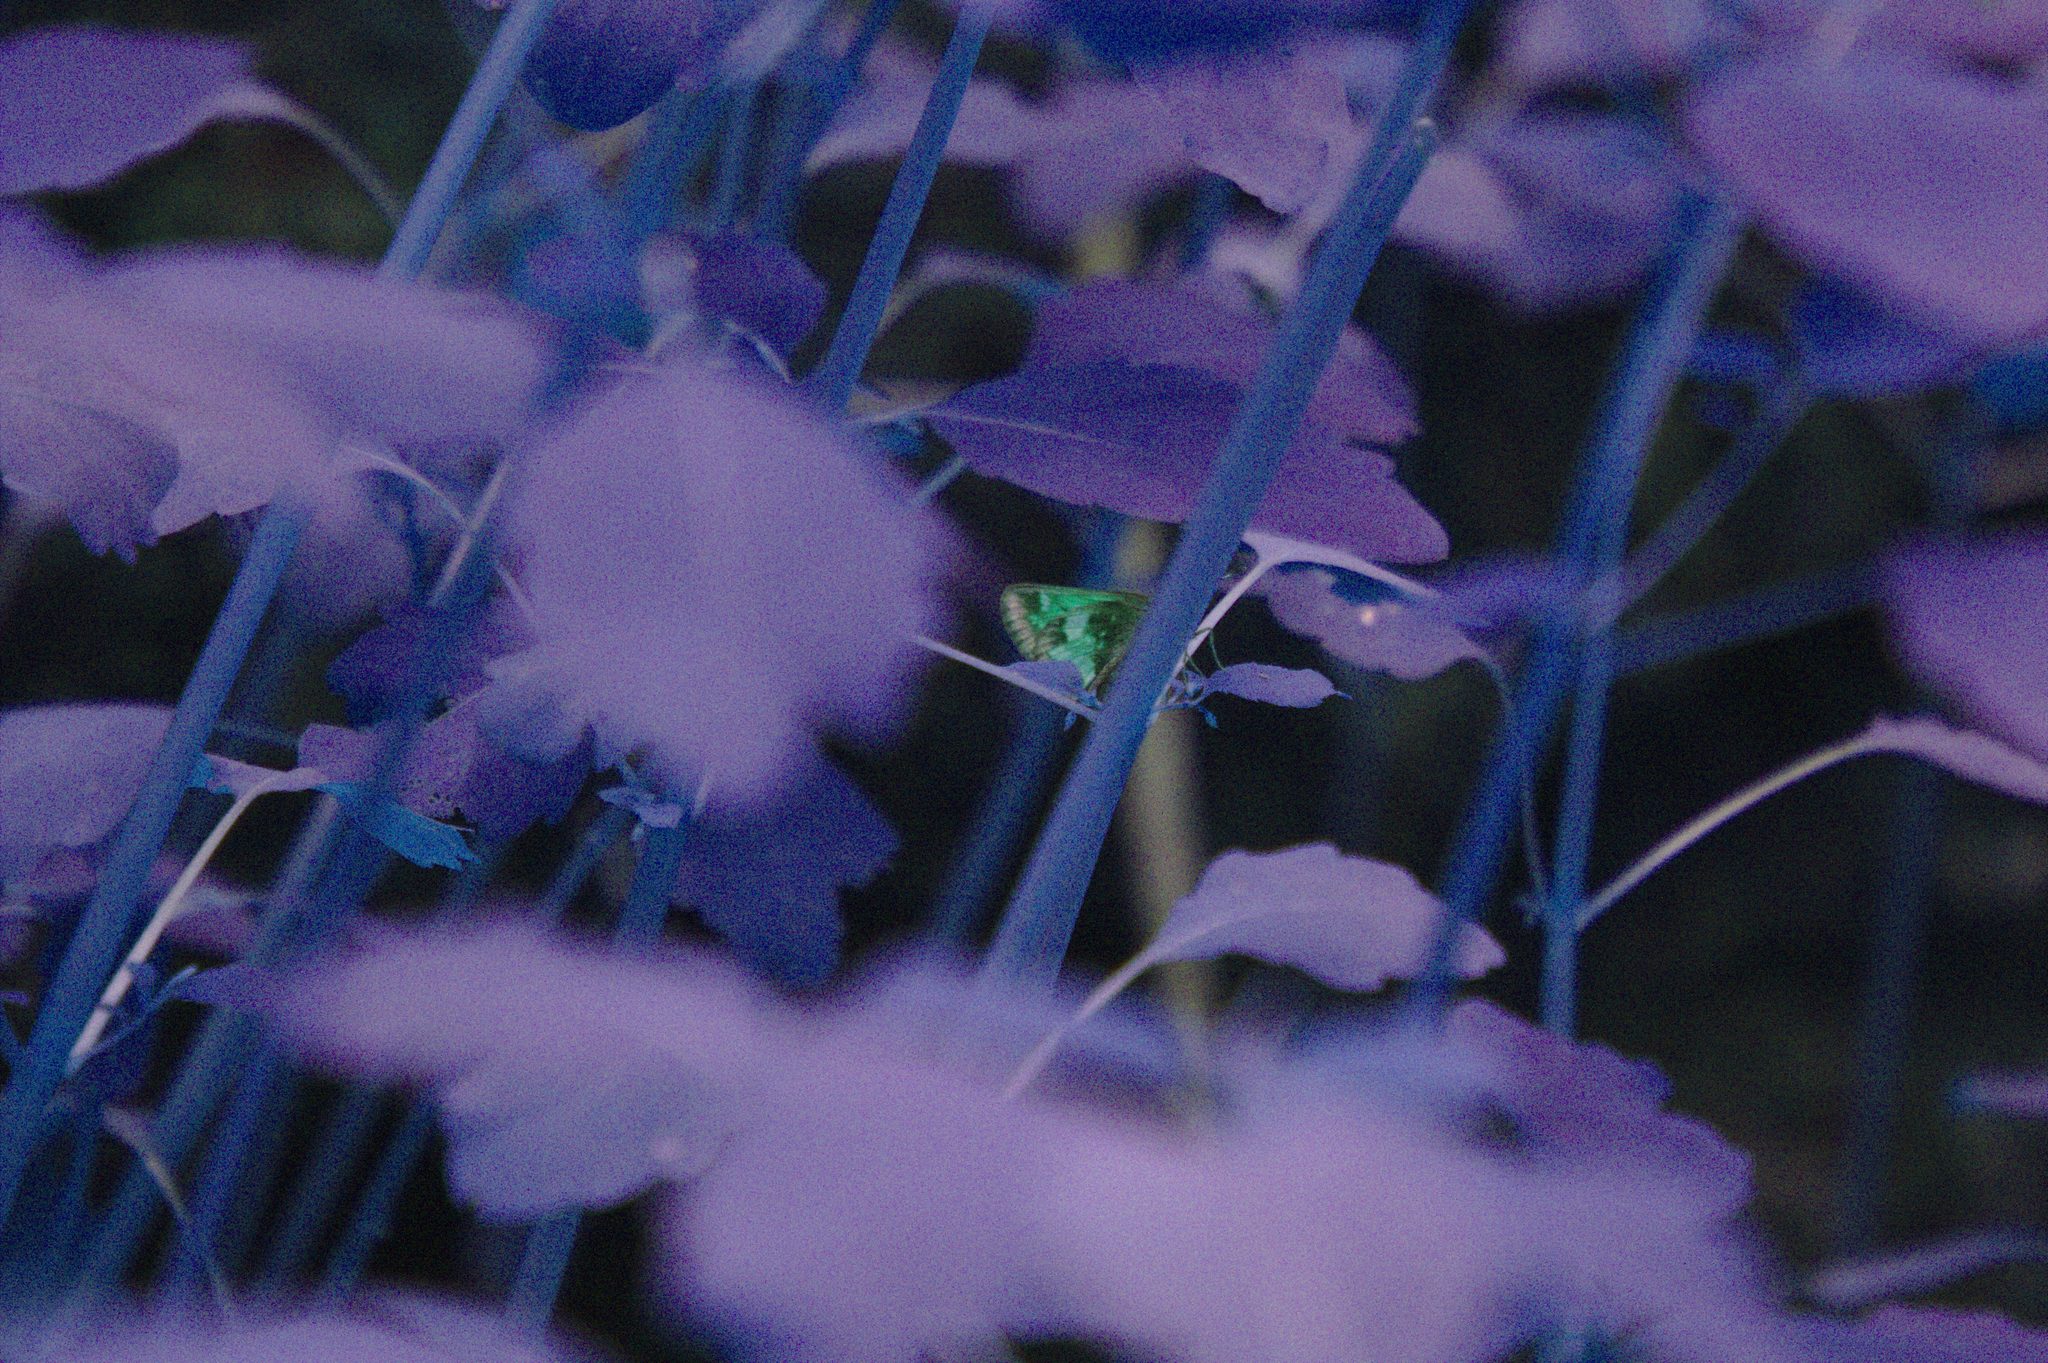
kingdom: Animalia
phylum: Arthropoda
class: Insecta
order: Lepidoptera
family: Hesperiidae
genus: Lon
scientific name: Lon hobomok
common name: Hobomok skipper
